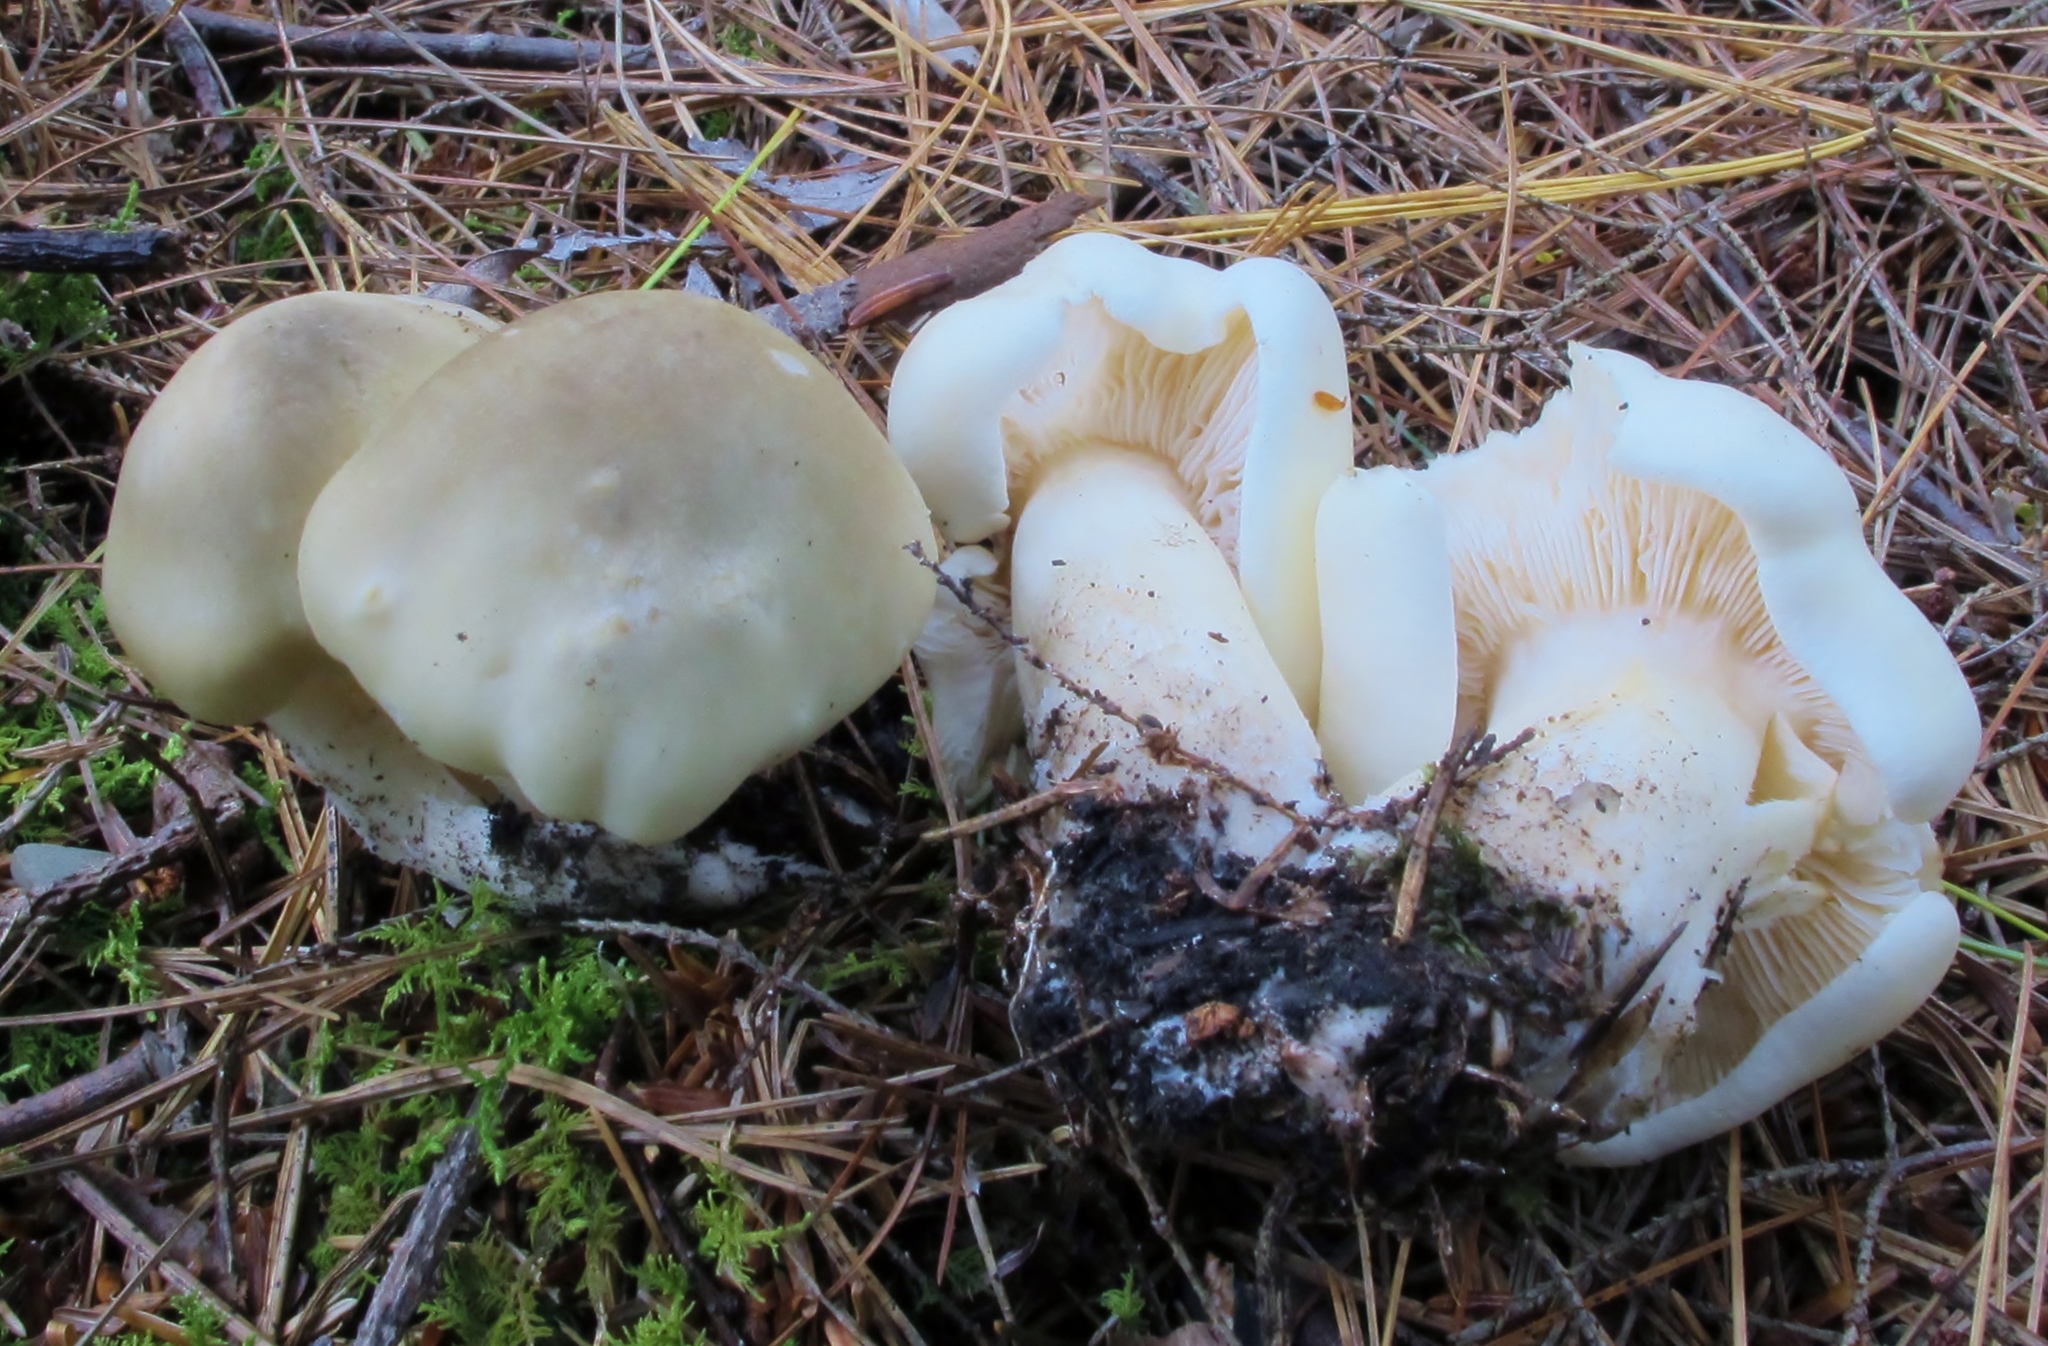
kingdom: Fungi
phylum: Basidiomycota
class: Agaricomycetes
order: Agaricales
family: Tricholomataceae
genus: Tricholoma
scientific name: Tricholoma saponaceum
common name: Soapy trich
